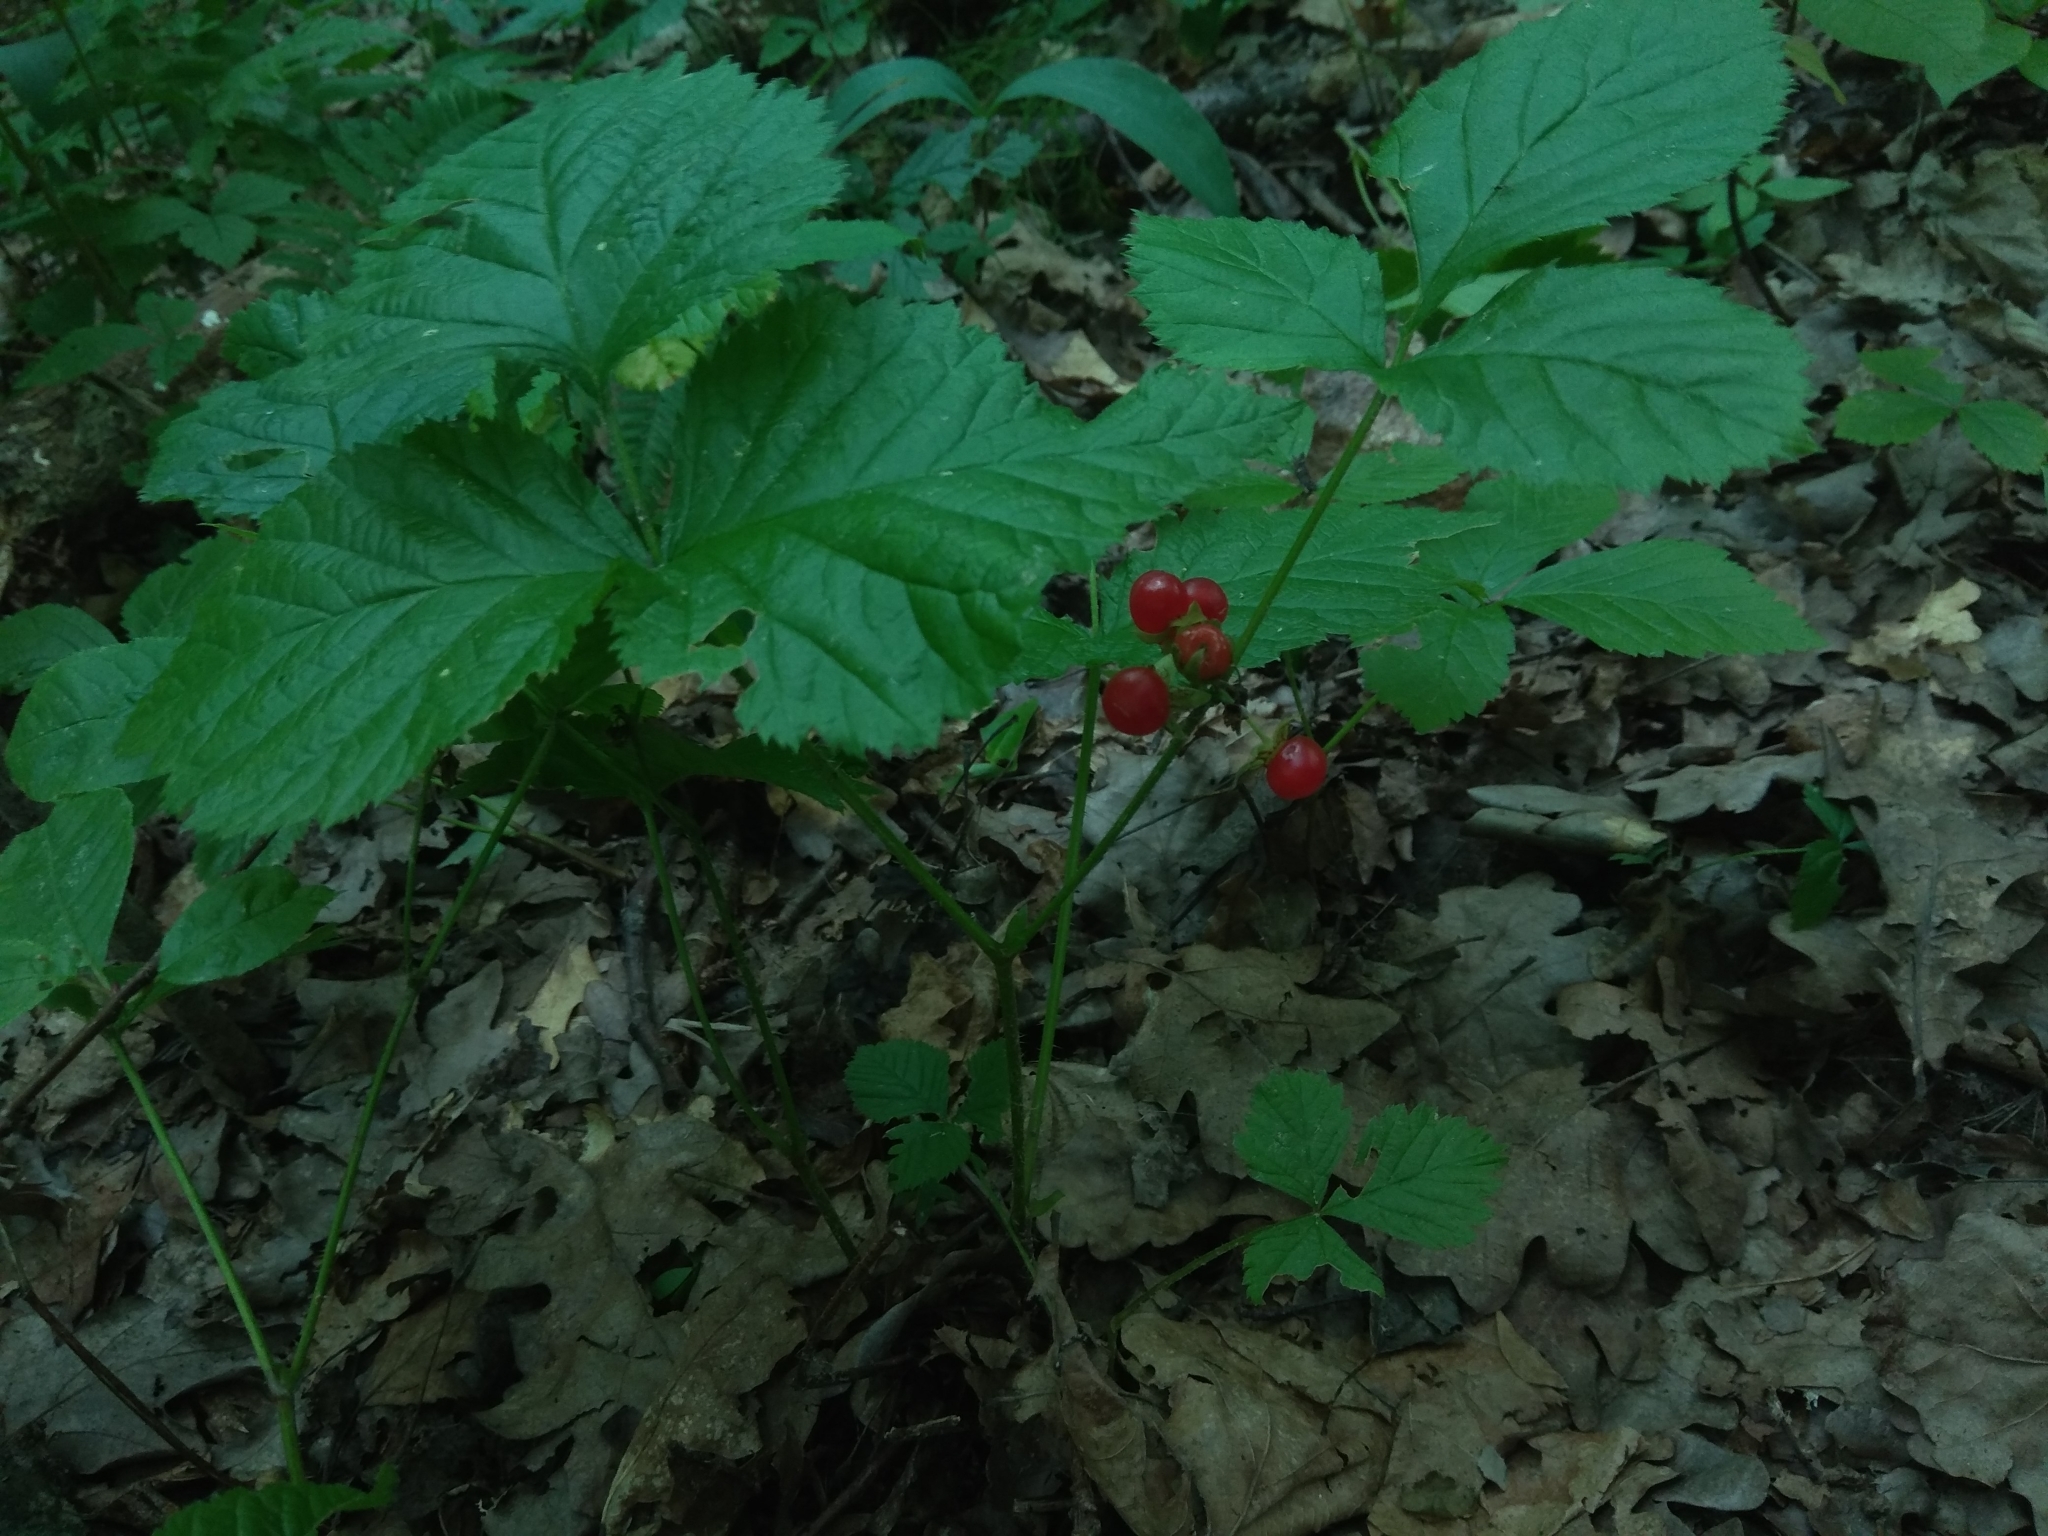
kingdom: Plantae
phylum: Tracheophyta
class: Magnoliopsida
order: Rosales
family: Rosaceae
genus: Rubus
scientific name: Rubus saxatilis
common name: Stone bramble
